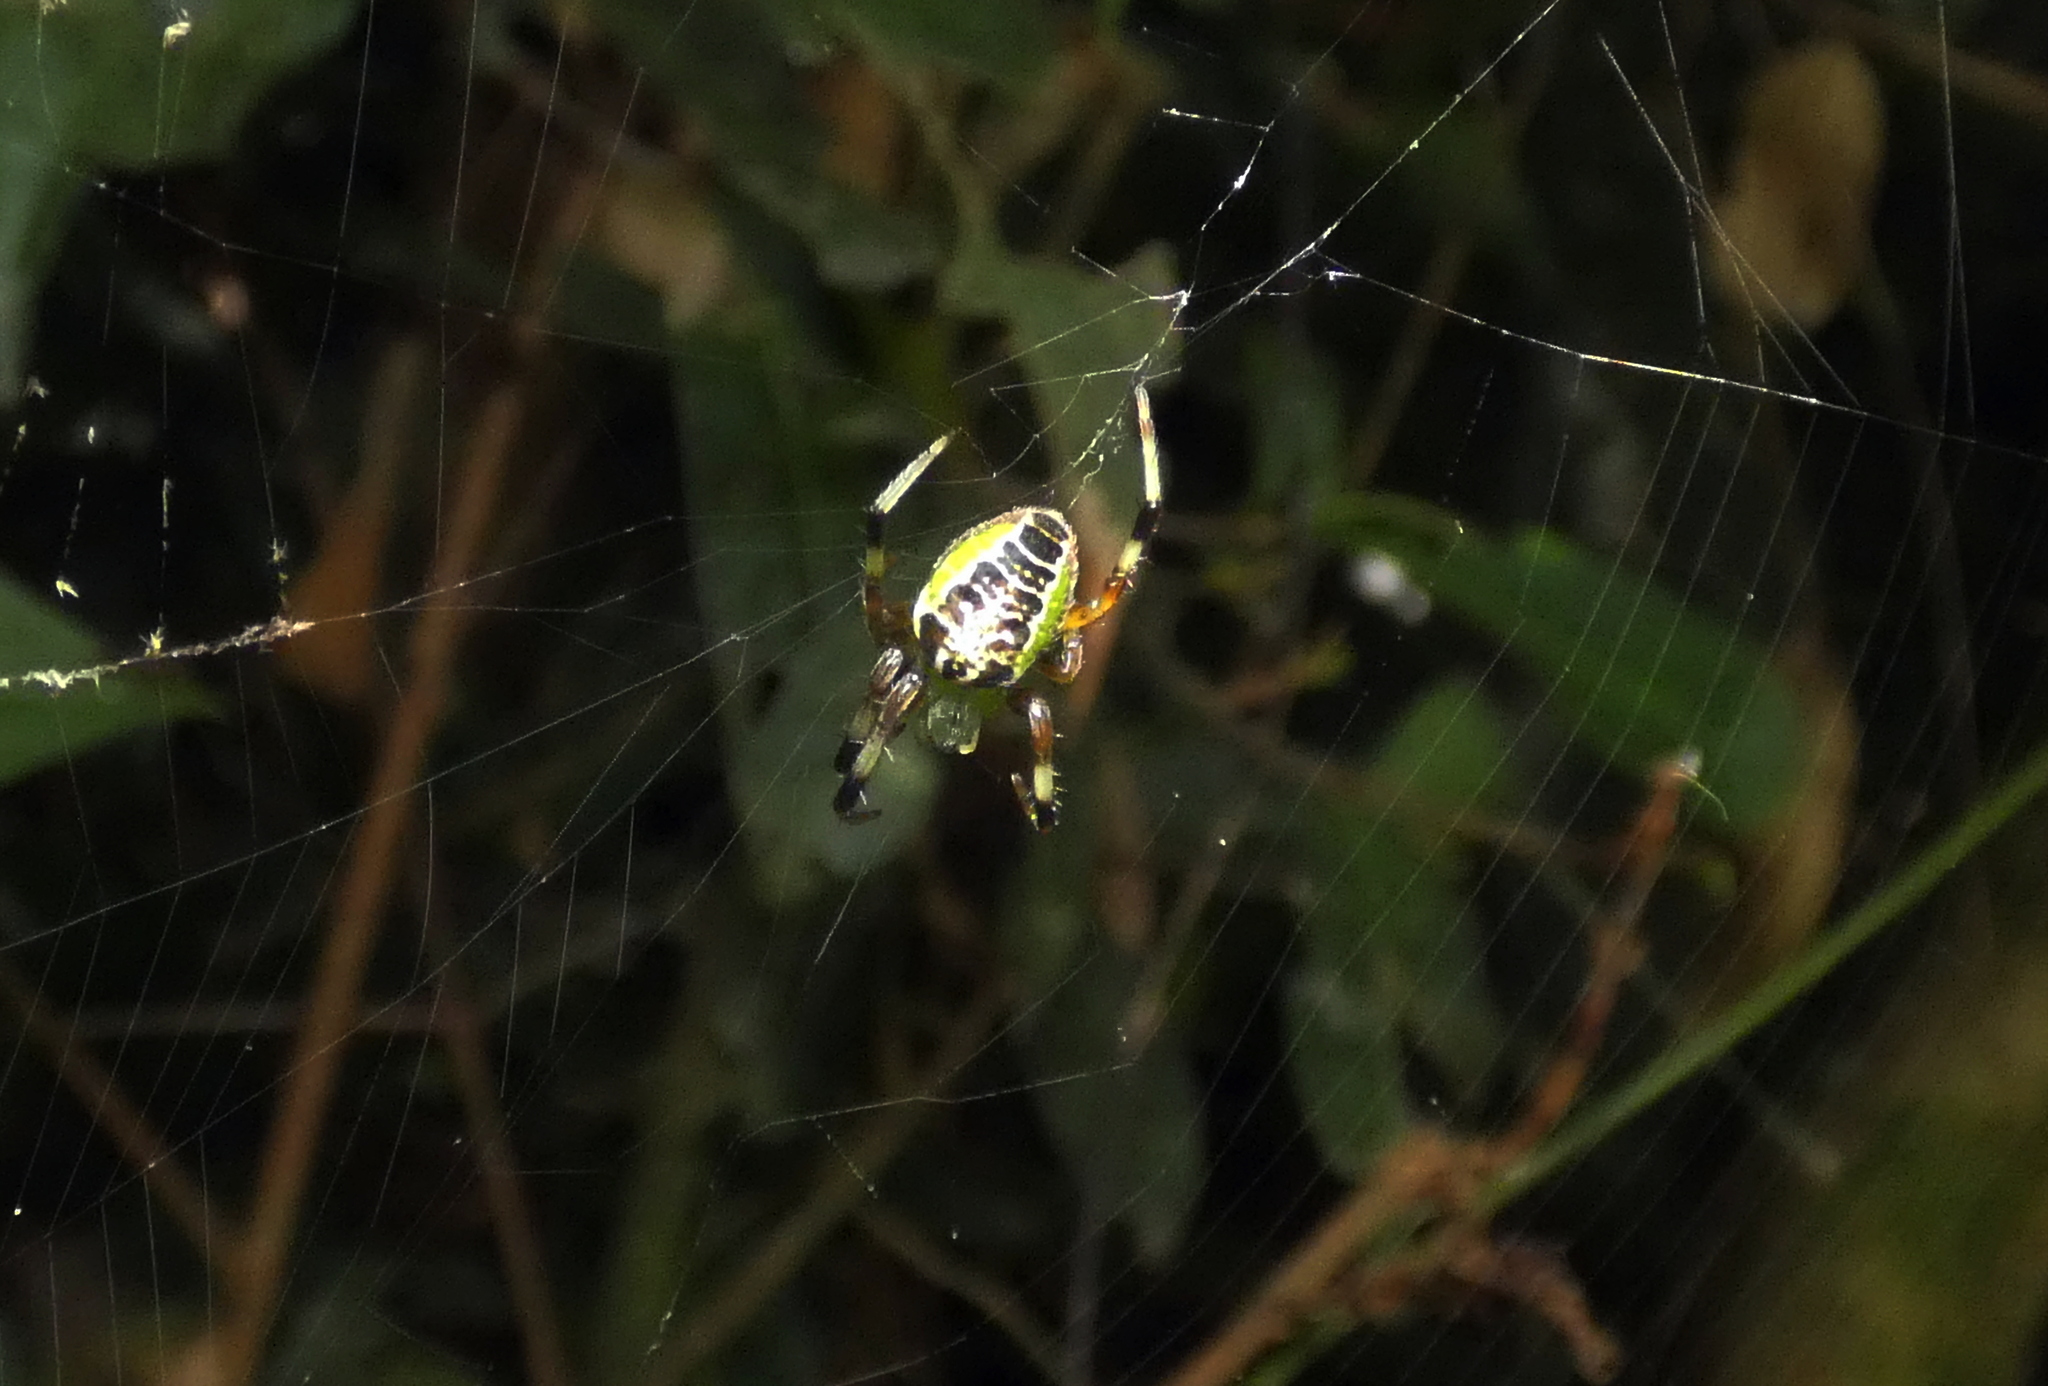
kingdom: Animalia
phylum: Arthropoda
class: Arachnida
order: Araneae
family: Araneidae
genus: Araneus
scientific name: Araneus venatrix
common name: Orb weavers
